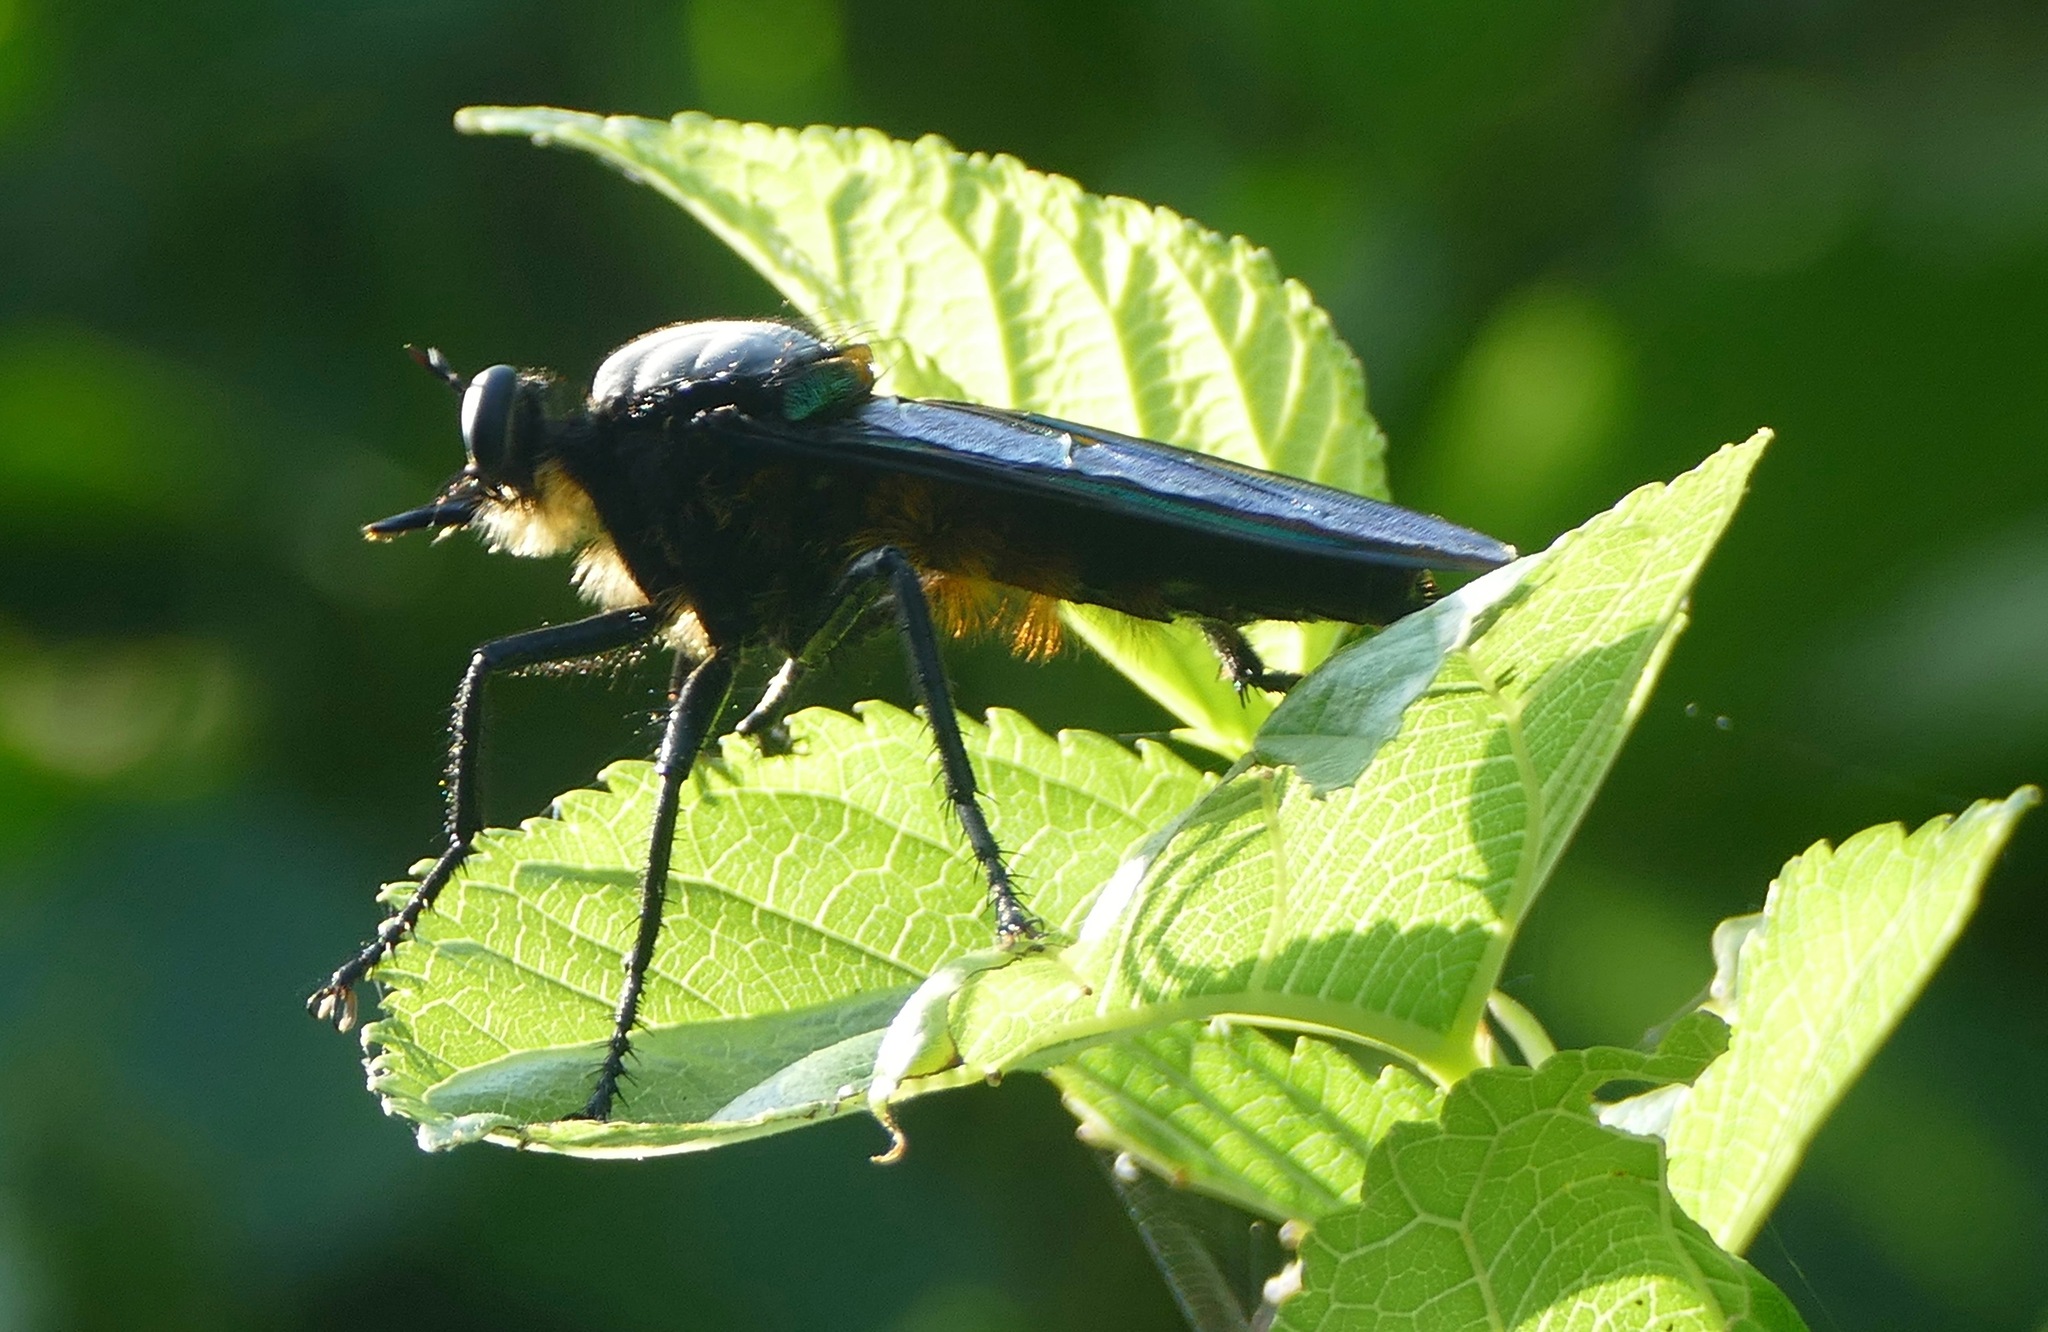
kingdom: Animalia
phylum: Arthropoda
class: Insecta
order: Diptera
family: Asilidae
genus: Microstylum
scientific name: Microstylum oberthurii
